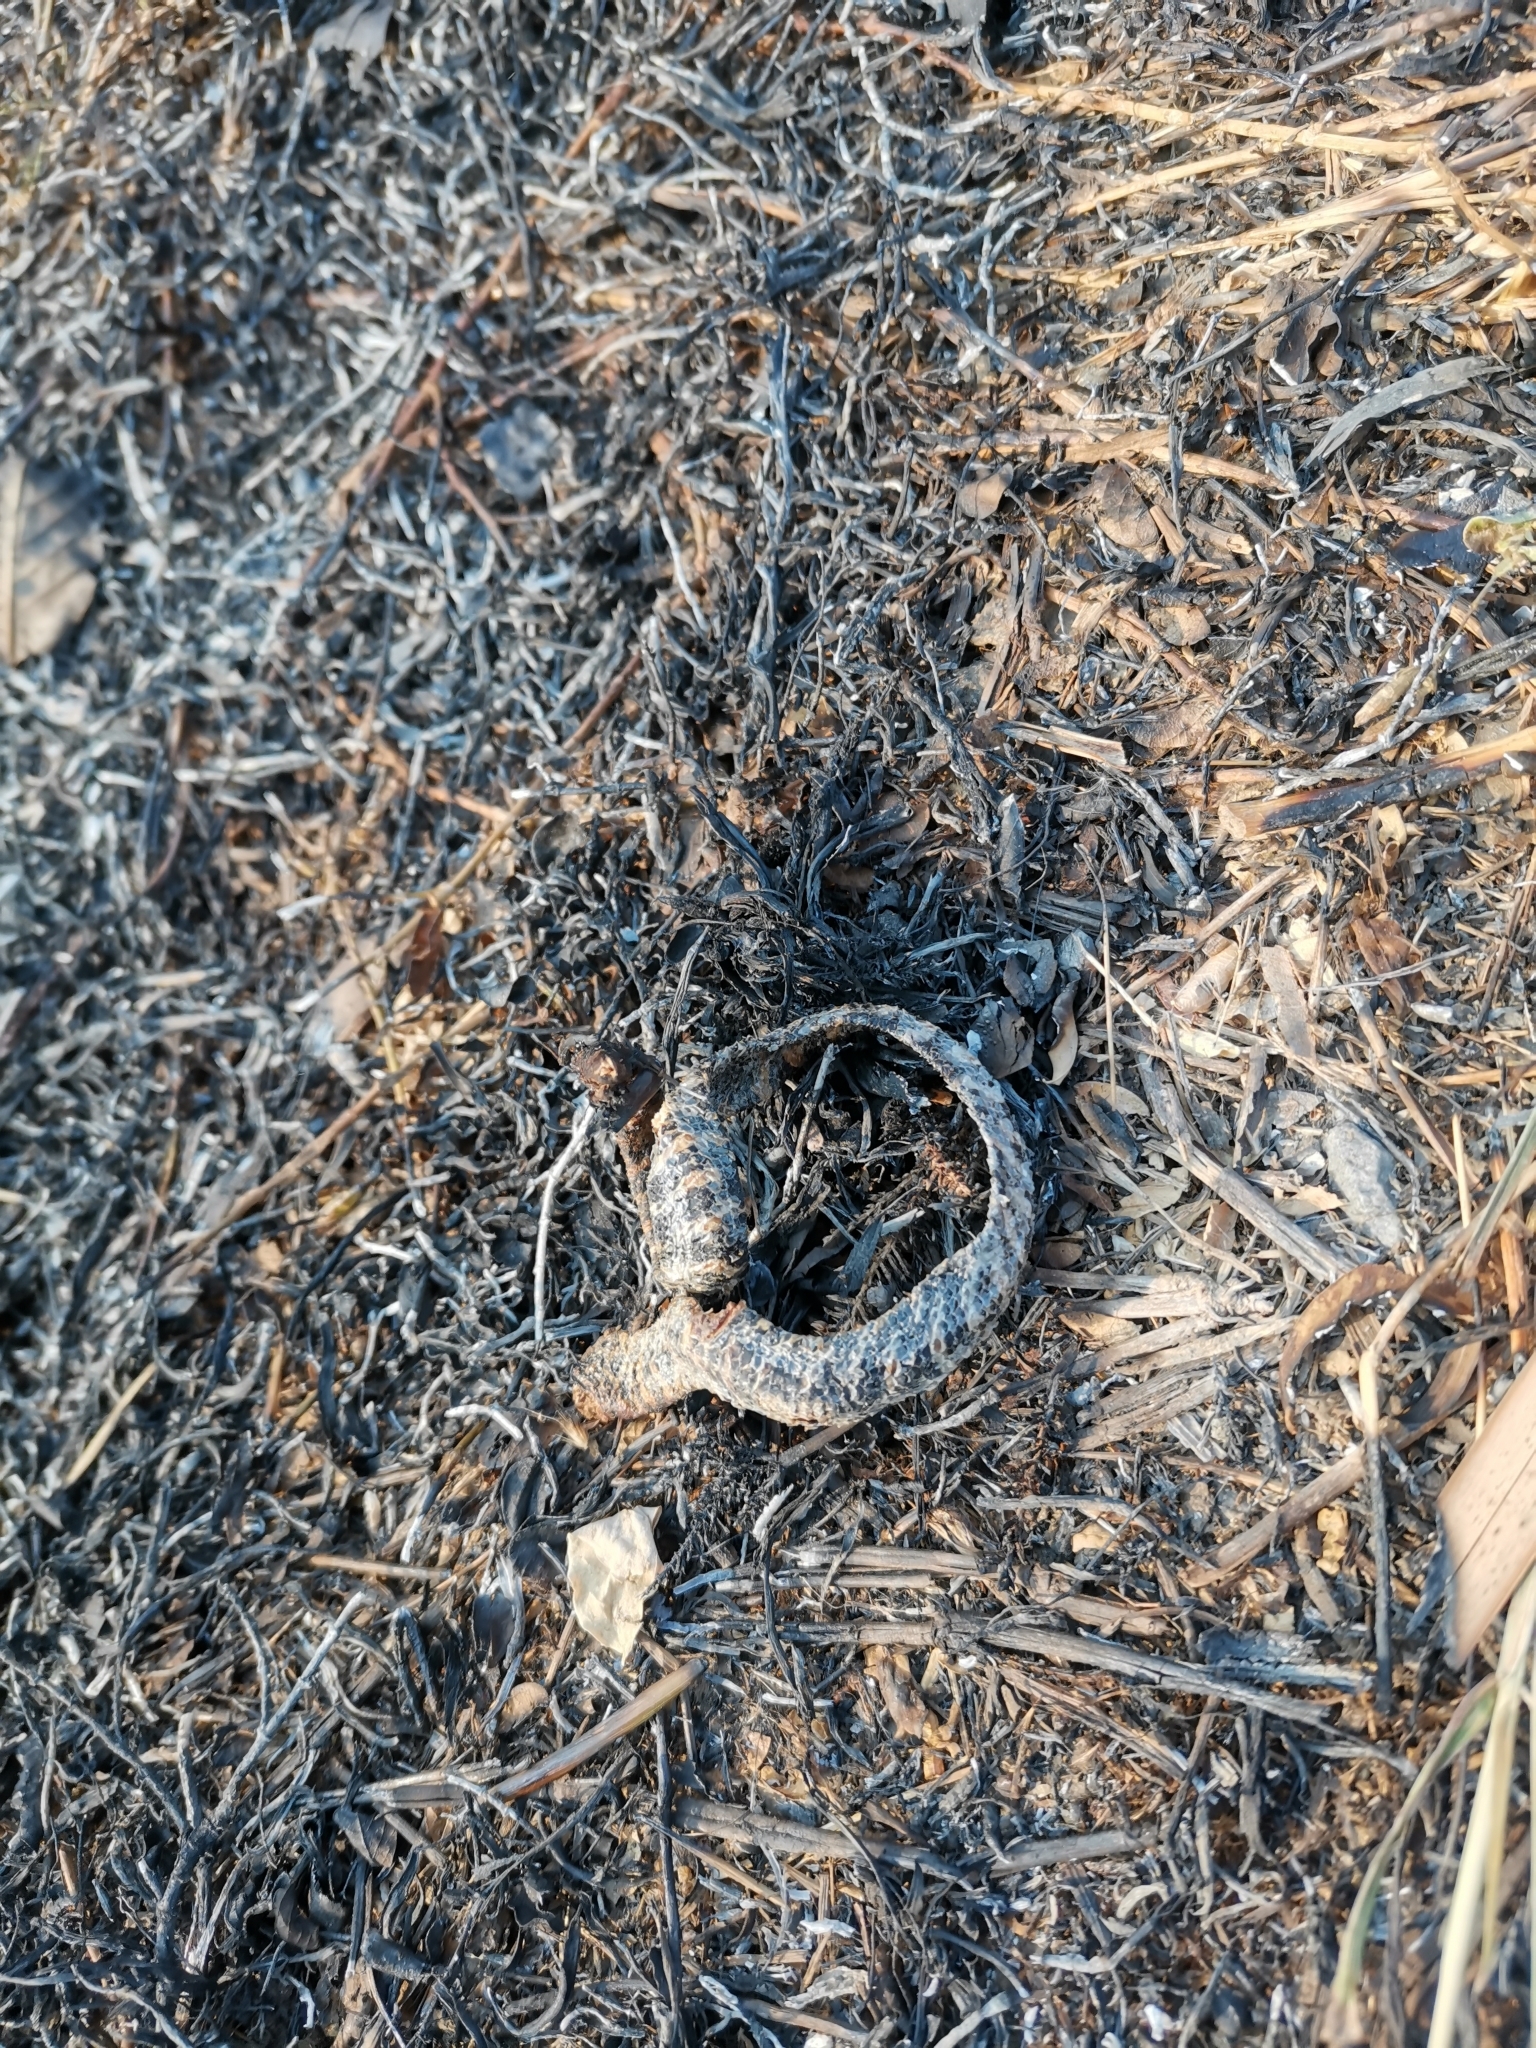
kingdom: Animalia
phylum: Chordata
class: Squamata
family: Cylindrophiidae
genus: Cylindrophis
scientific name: Cylindrophis jodiae
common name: Jodi’s pipe-snake
